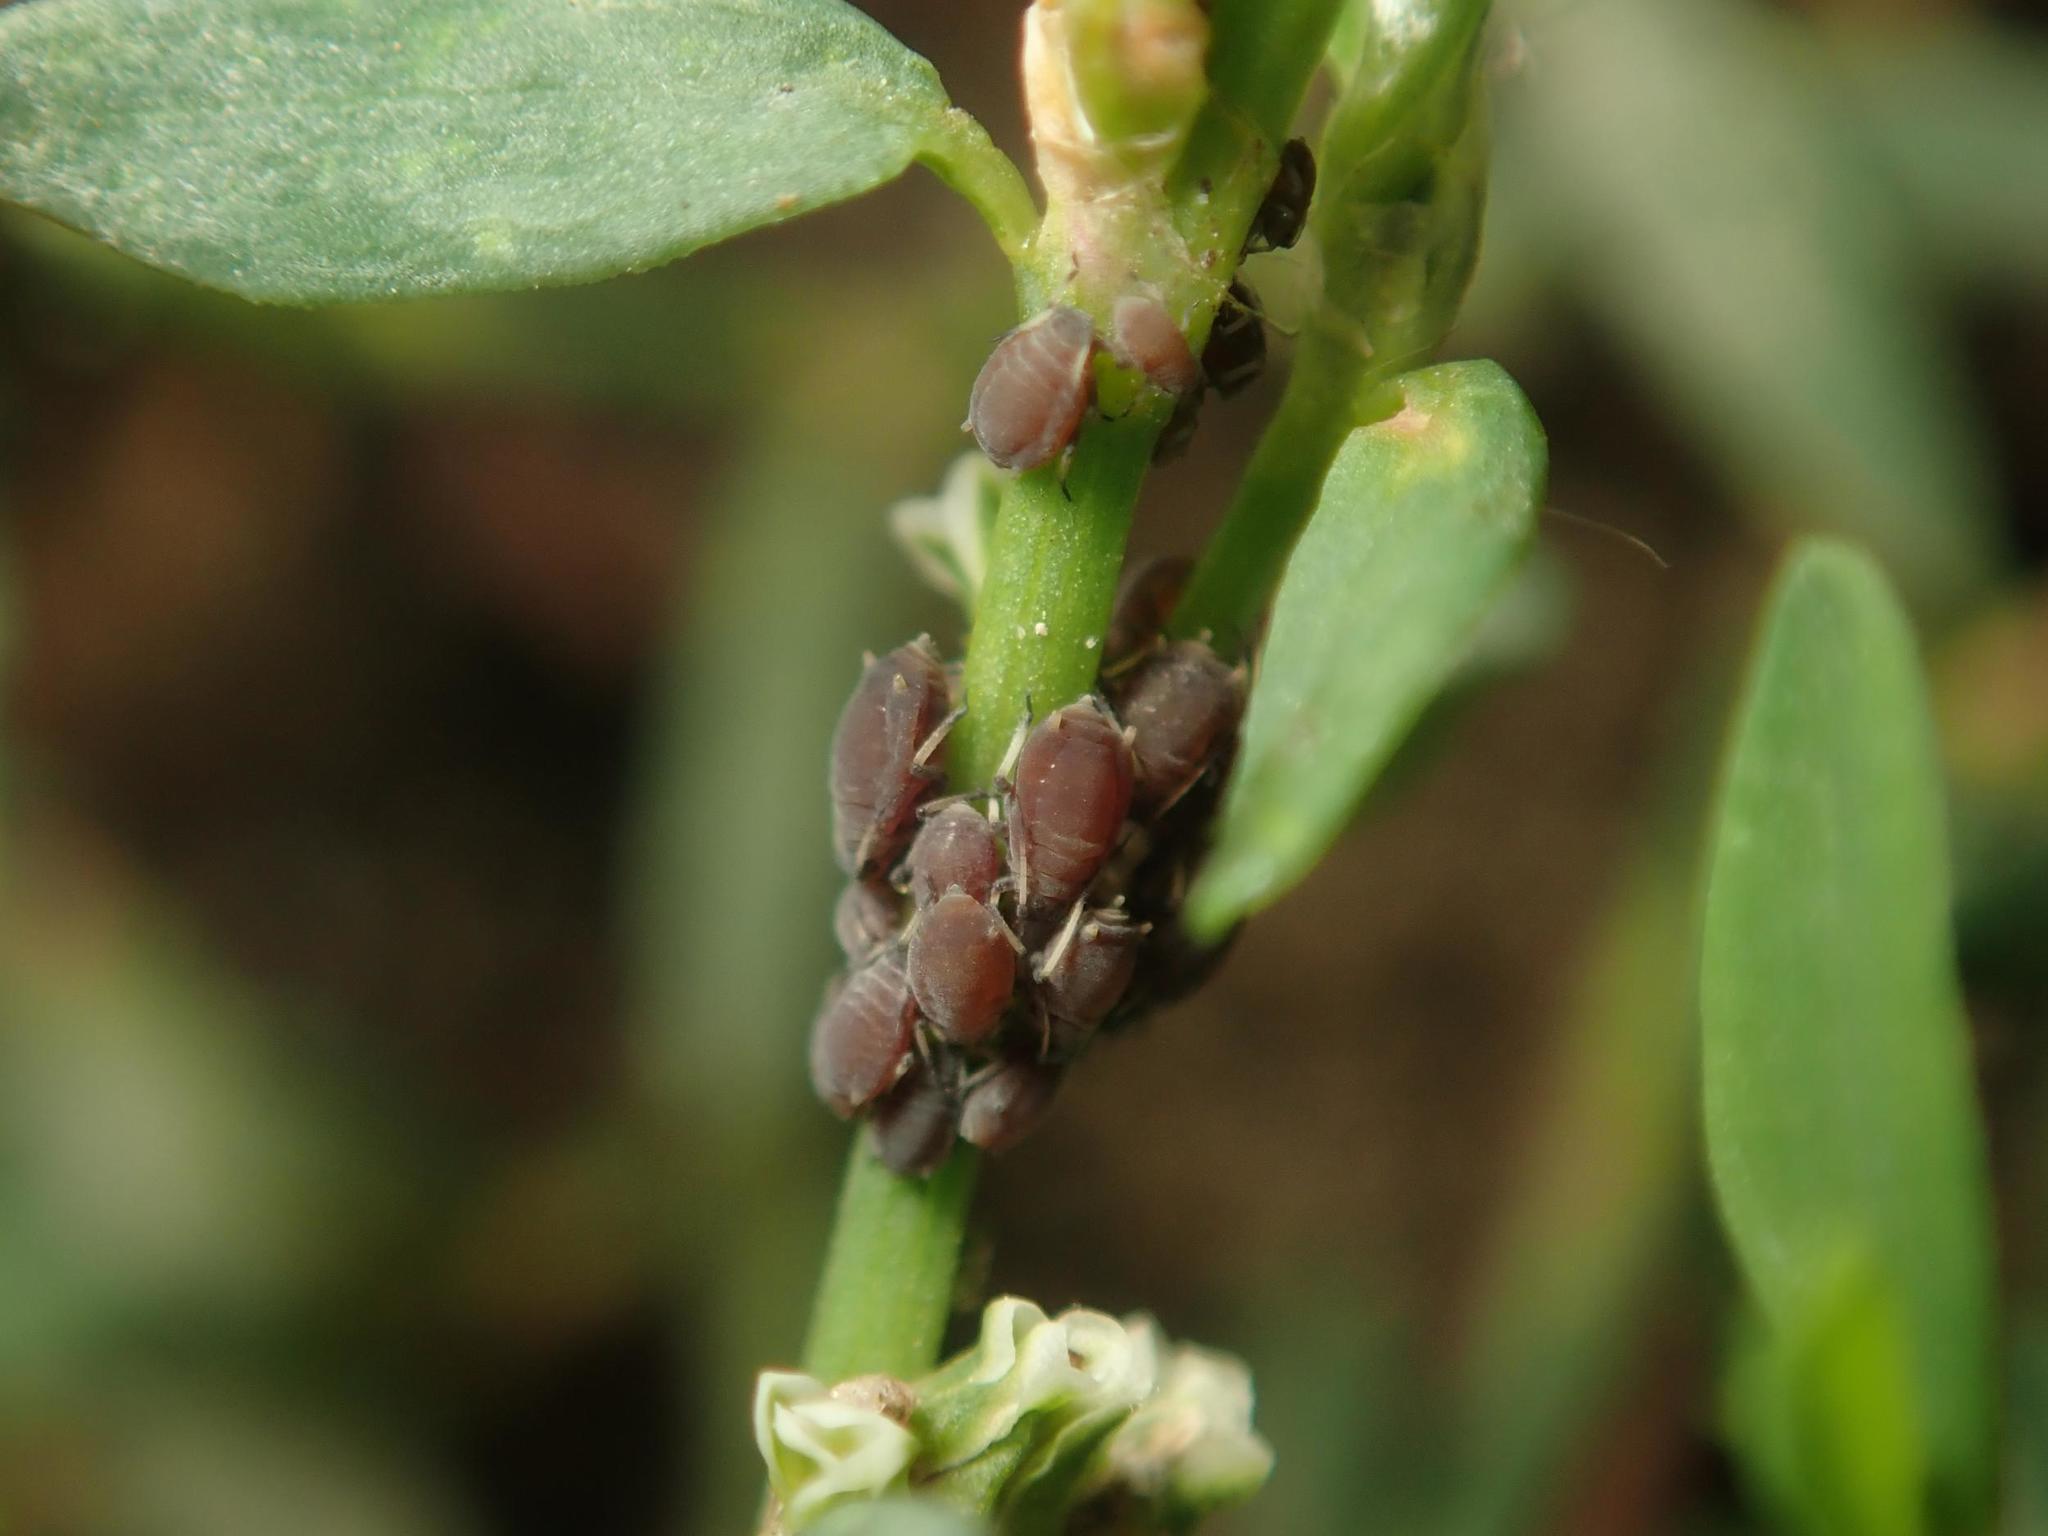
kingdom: Animalia
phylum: Arthropoda
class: Insecta
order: Hemiptera
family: Aphididae
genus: Aphis
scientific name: Aphis polygonata
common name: Aphid
